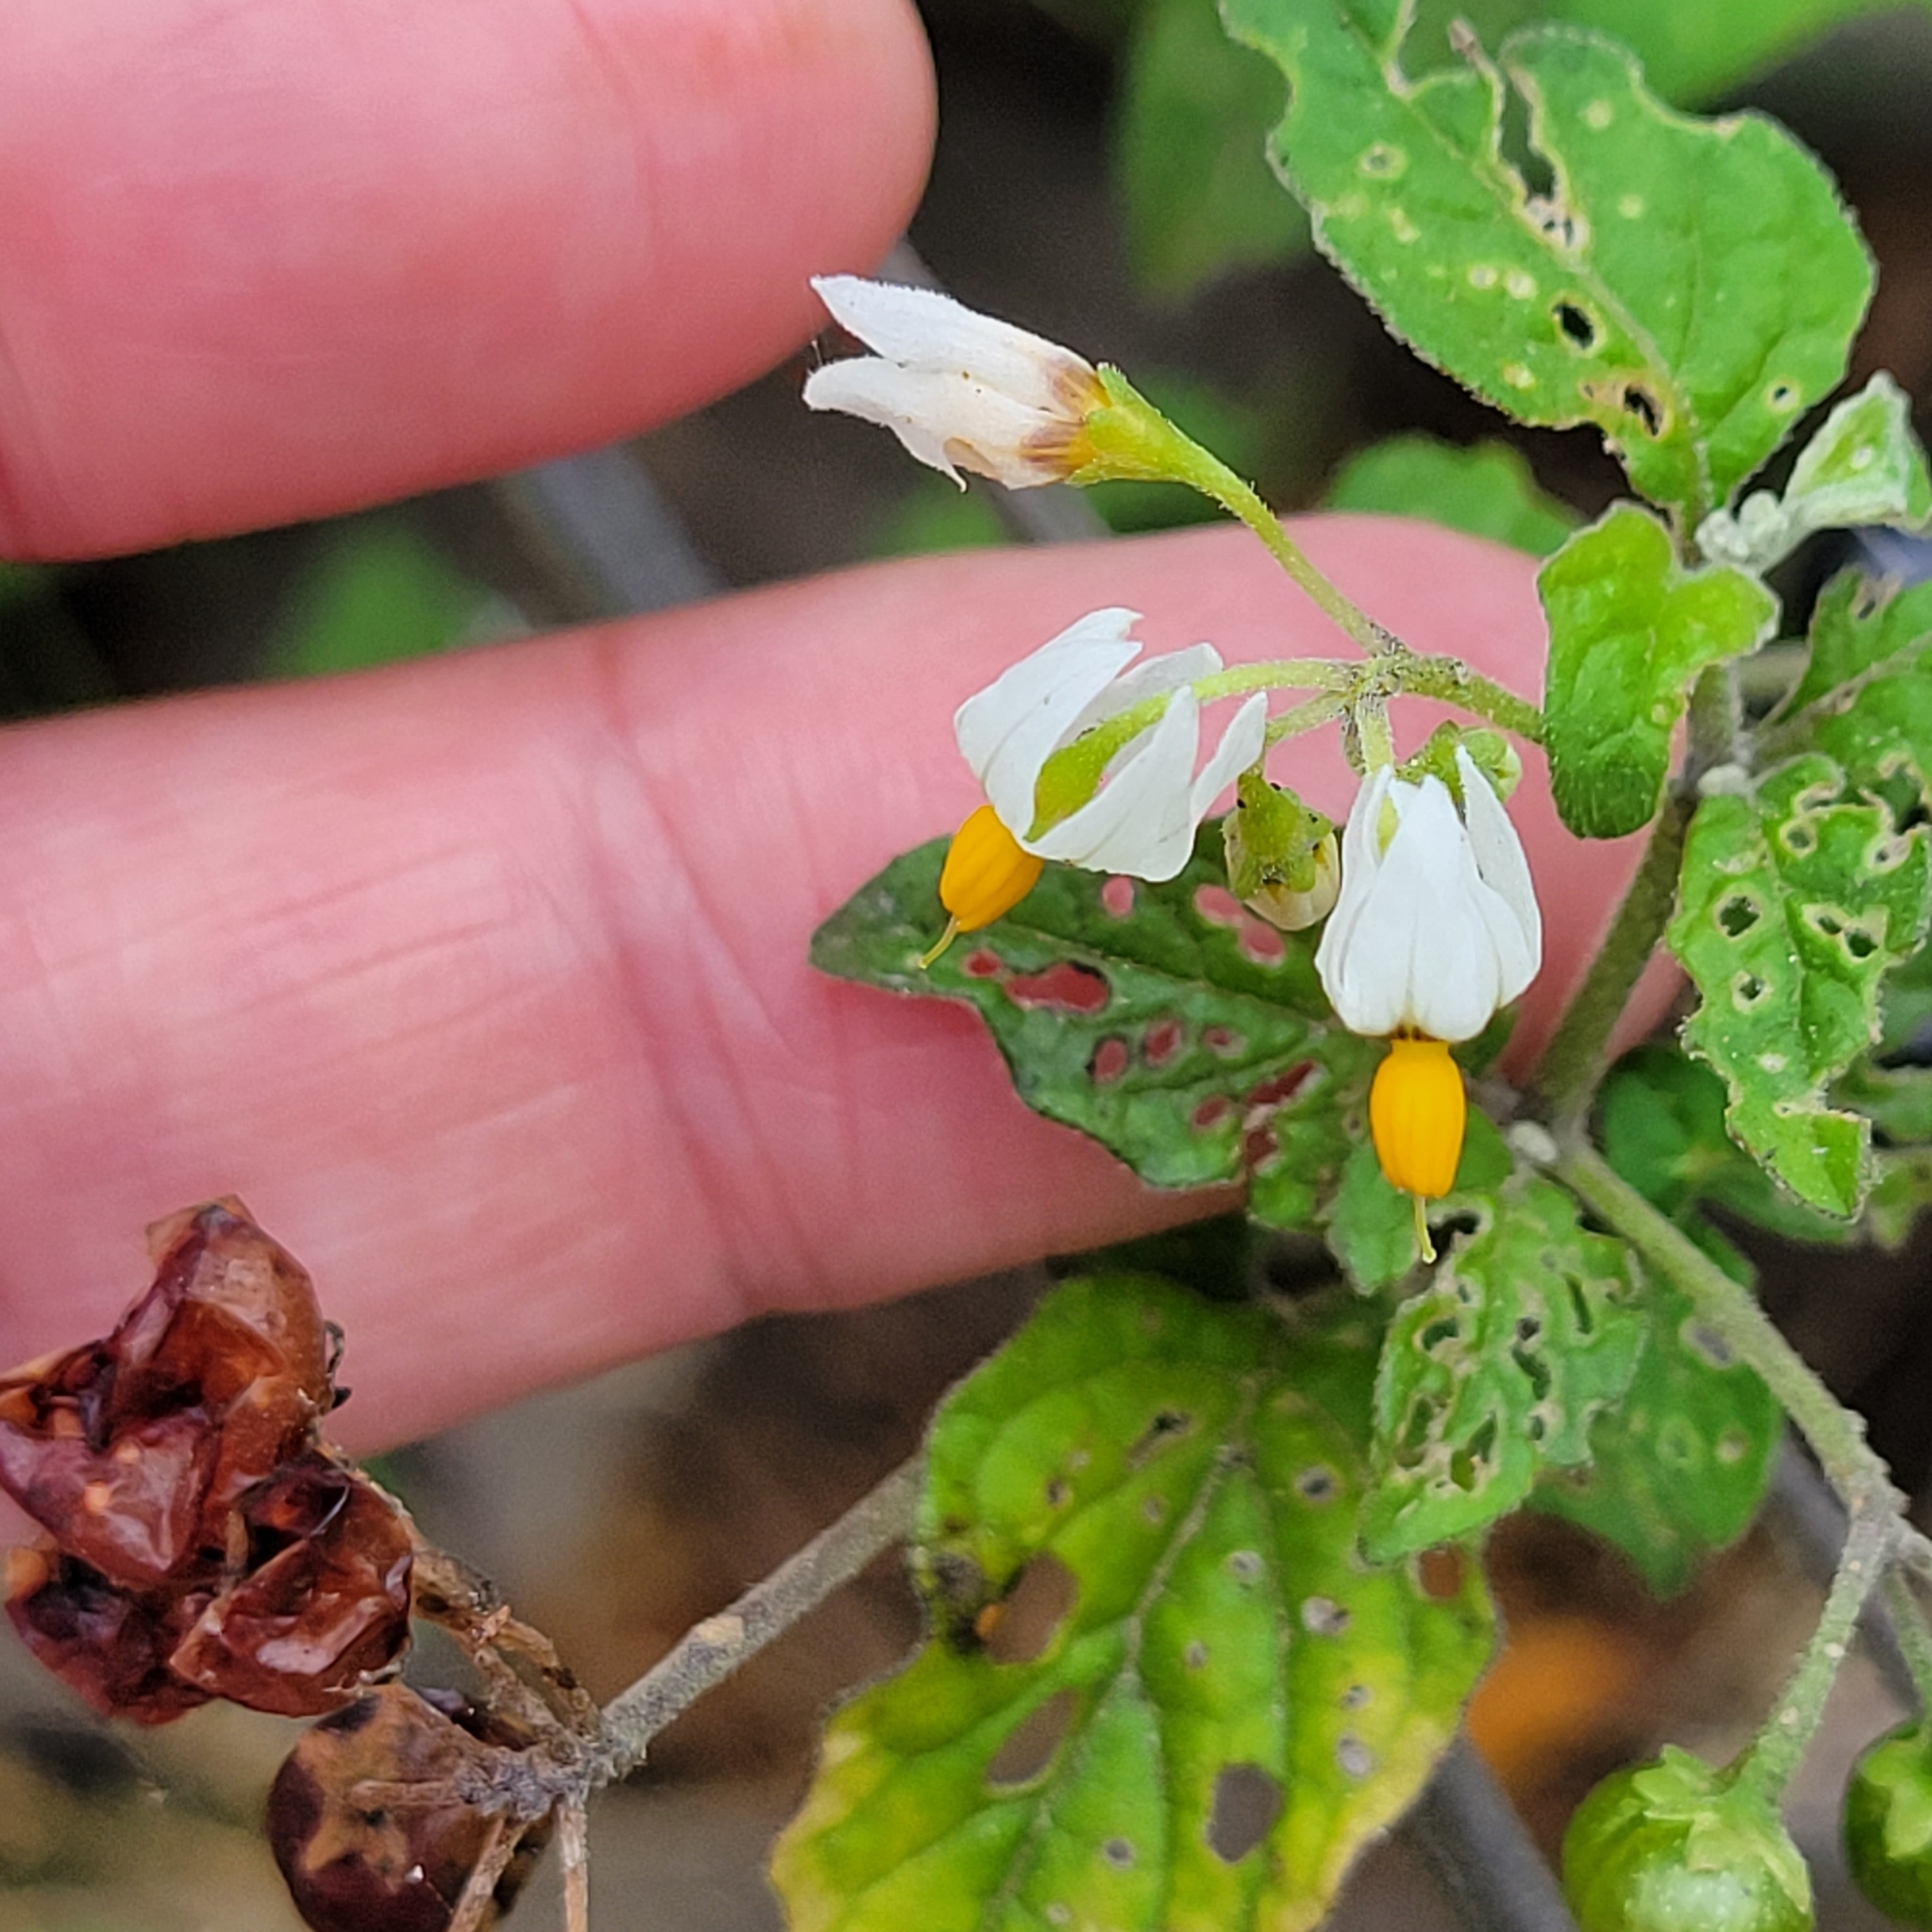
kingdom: Plantae
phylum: Tracheophyta
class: Magnoliopsida
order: Solanales
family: Solanaceae
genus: Solanum
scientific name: Solanum douglasii
